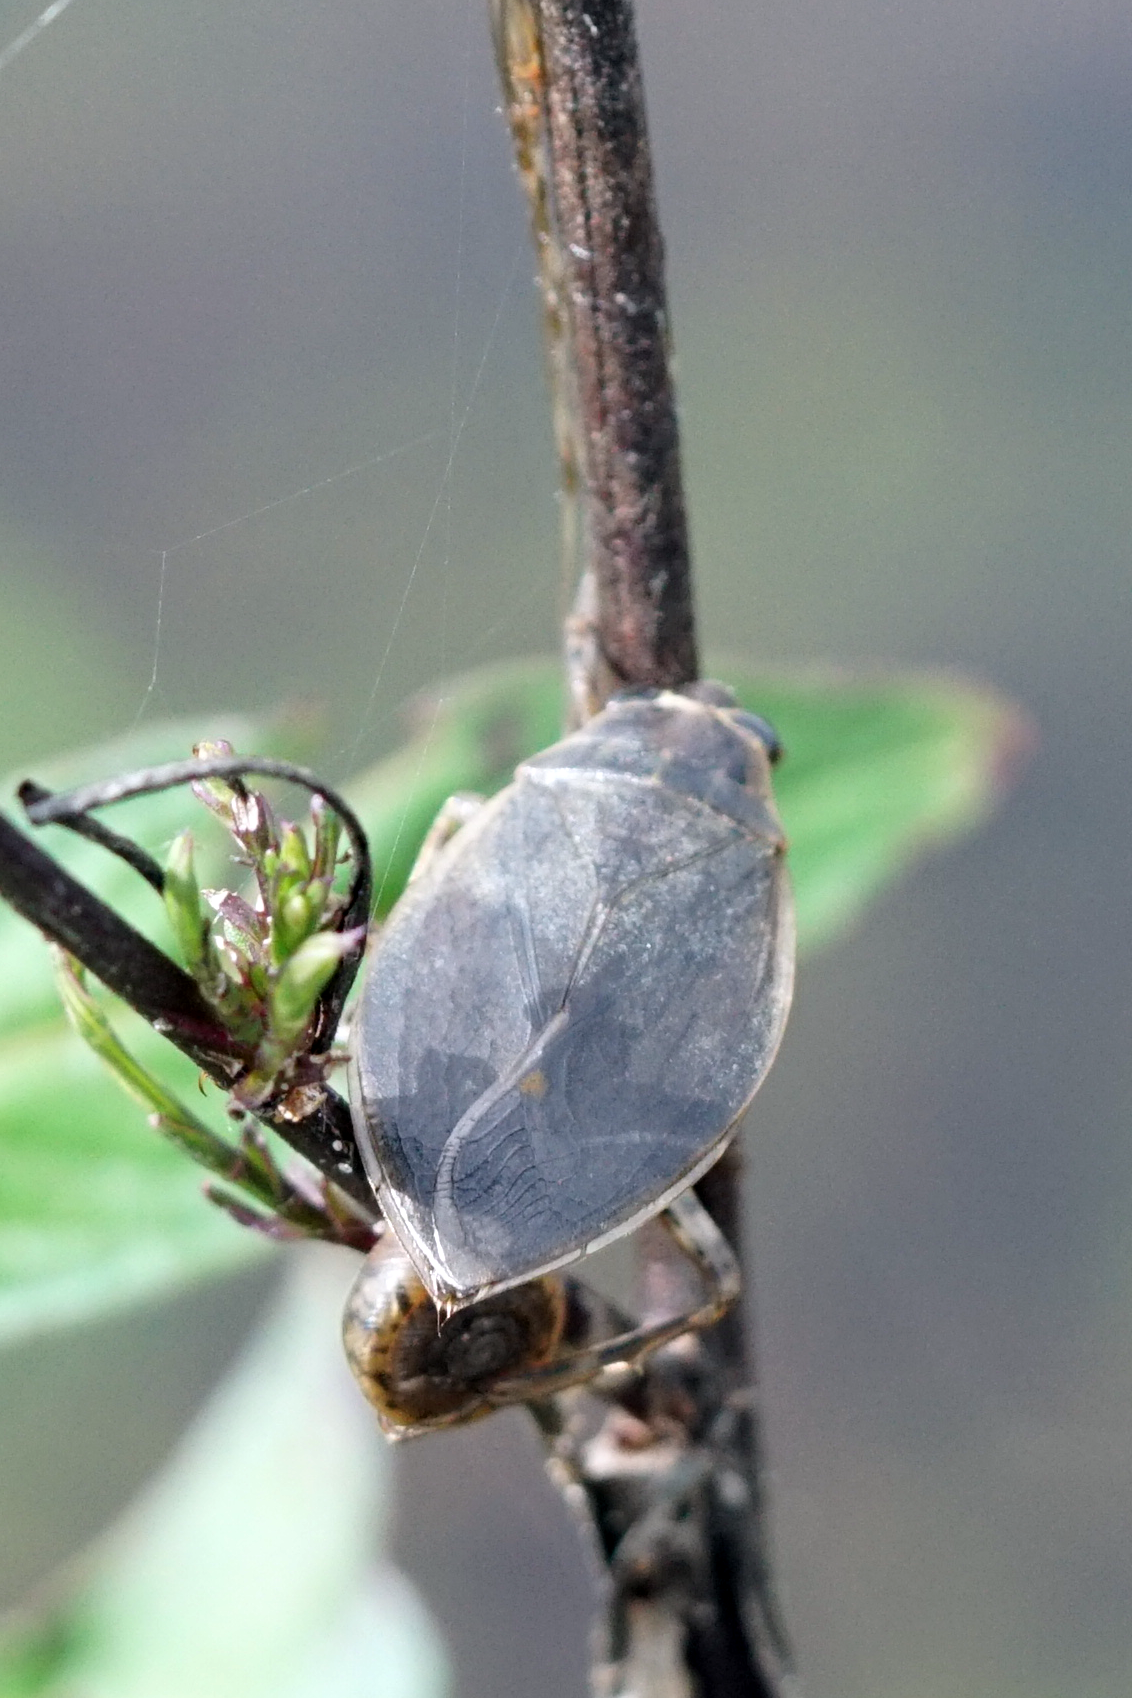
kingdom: Animalia
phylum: Arthropoda
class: Insecta
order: Hemiptera
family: Belostomatidae
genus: Belostoma
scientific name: Belostoma
